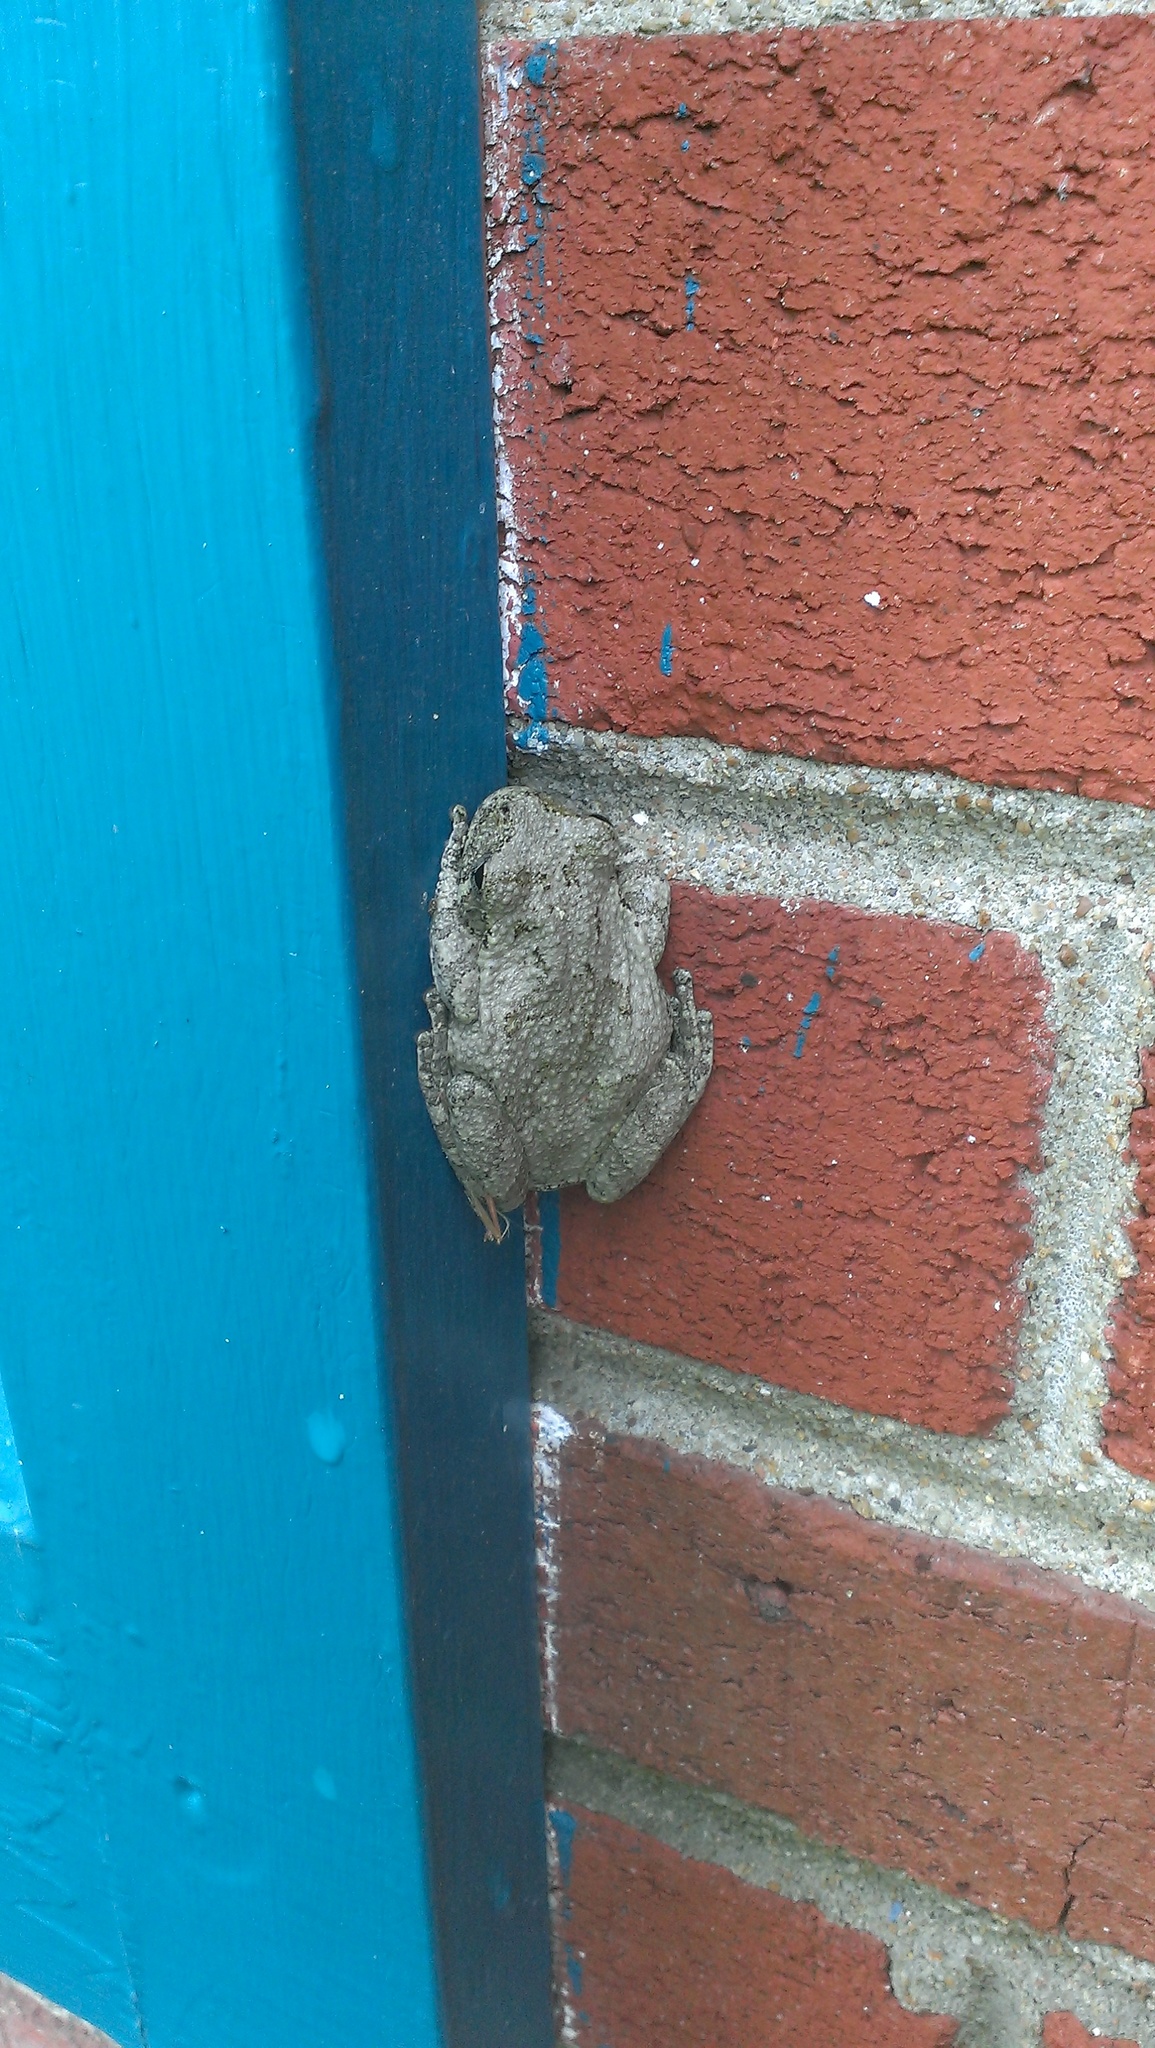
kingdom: Animalia
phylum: Chordata
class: Amphibia
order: Anura
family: Hylidae
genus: Dryophytes
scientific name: Dryophytes chrysoscelis
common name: Cope's gray treefrog
